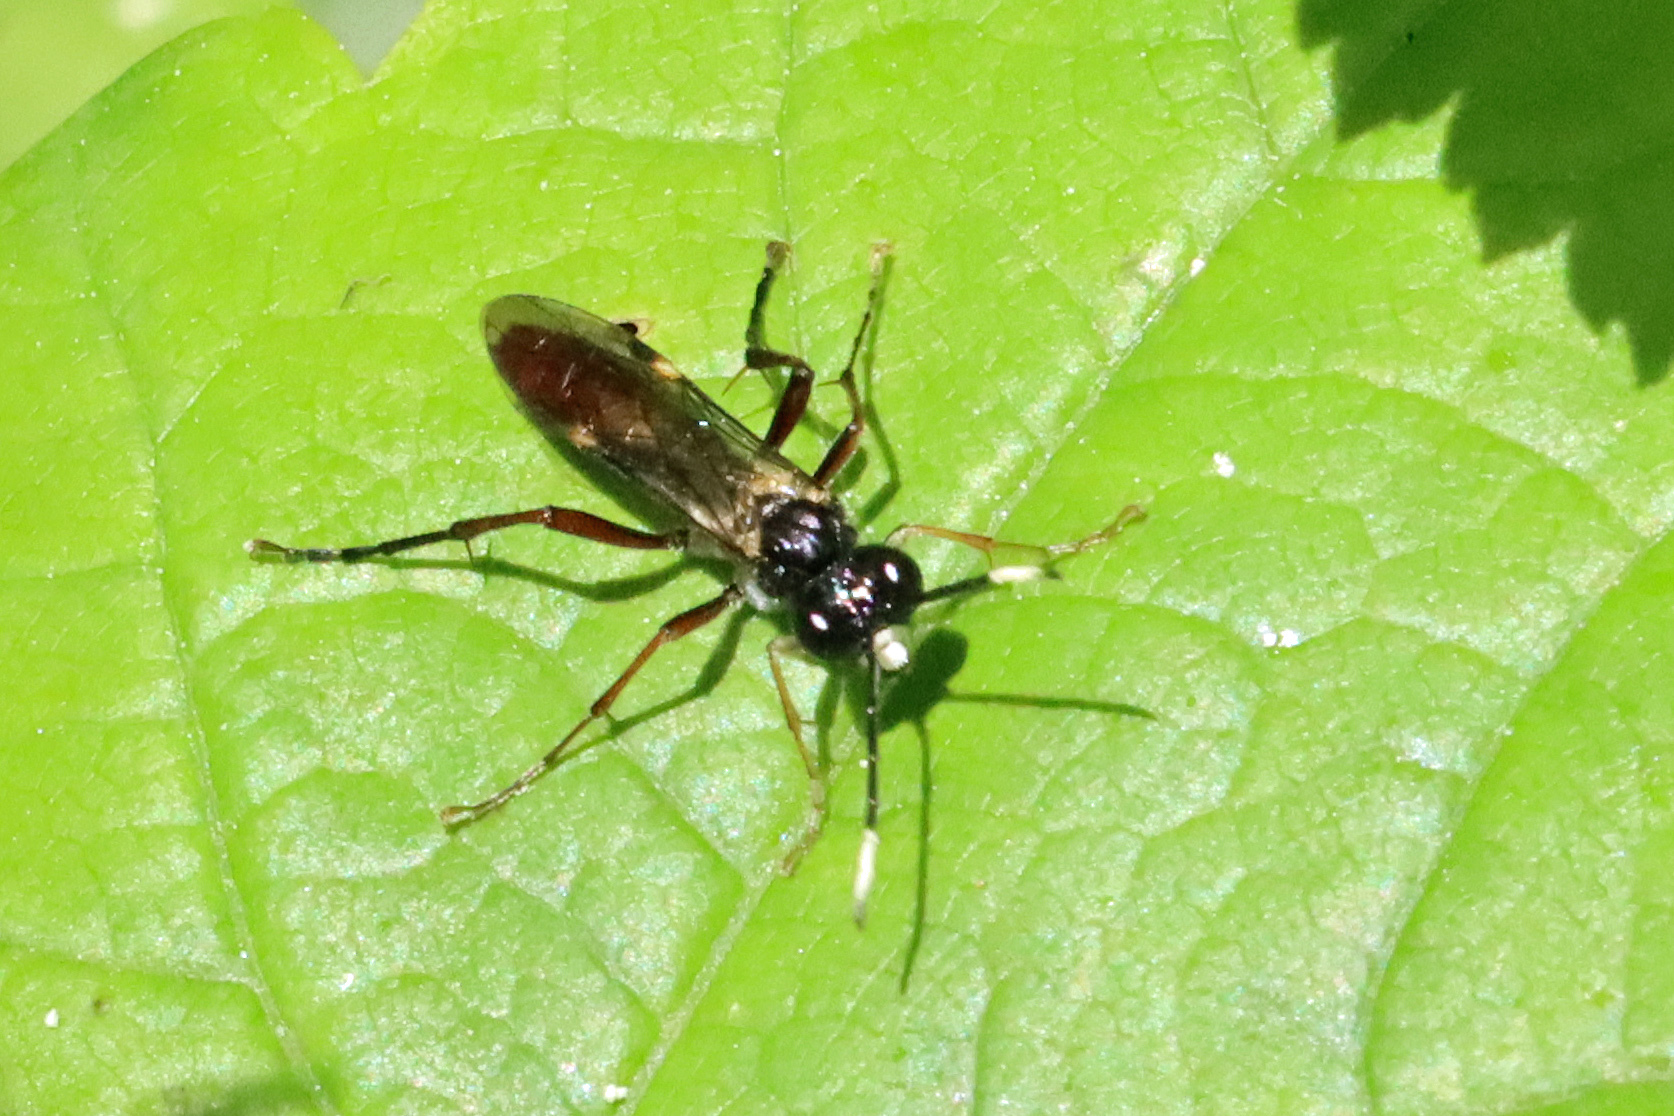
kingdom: Animalia
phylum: Arthropoda
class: Insecta
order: Hymenoptera
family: Tenthredinidae
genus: Tenthredo
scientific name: Tenthredo livida
